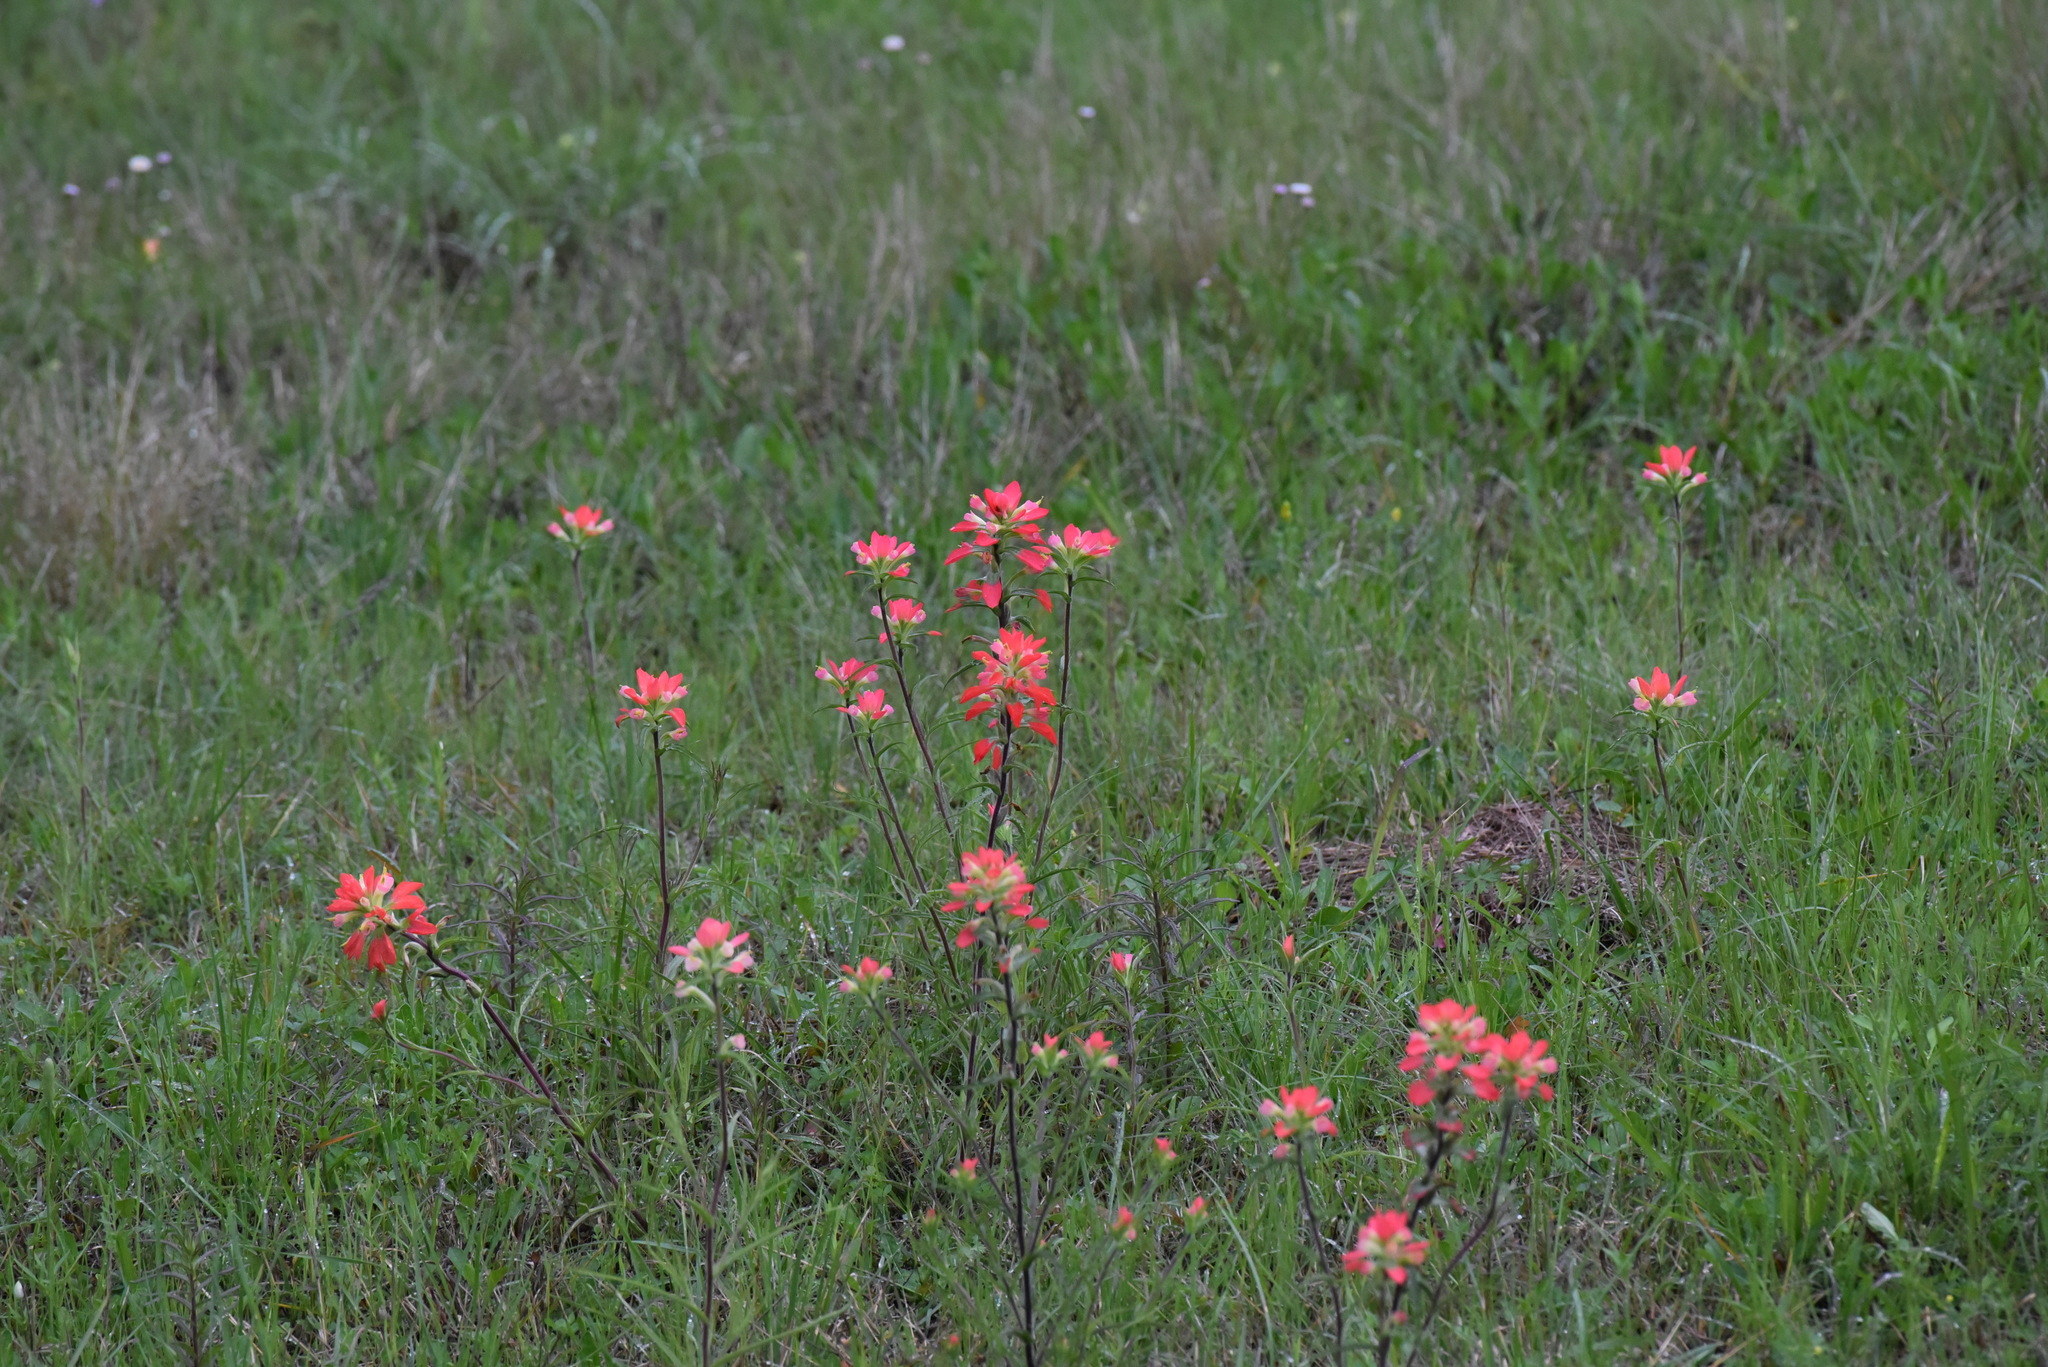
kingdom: Plantae
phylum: Tracheophyta
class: Magnoliopsida
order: Lamiales
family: Orobanchaceae
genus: Castilleja
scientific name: Castilleja indivisa
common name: Texas paintbrush
